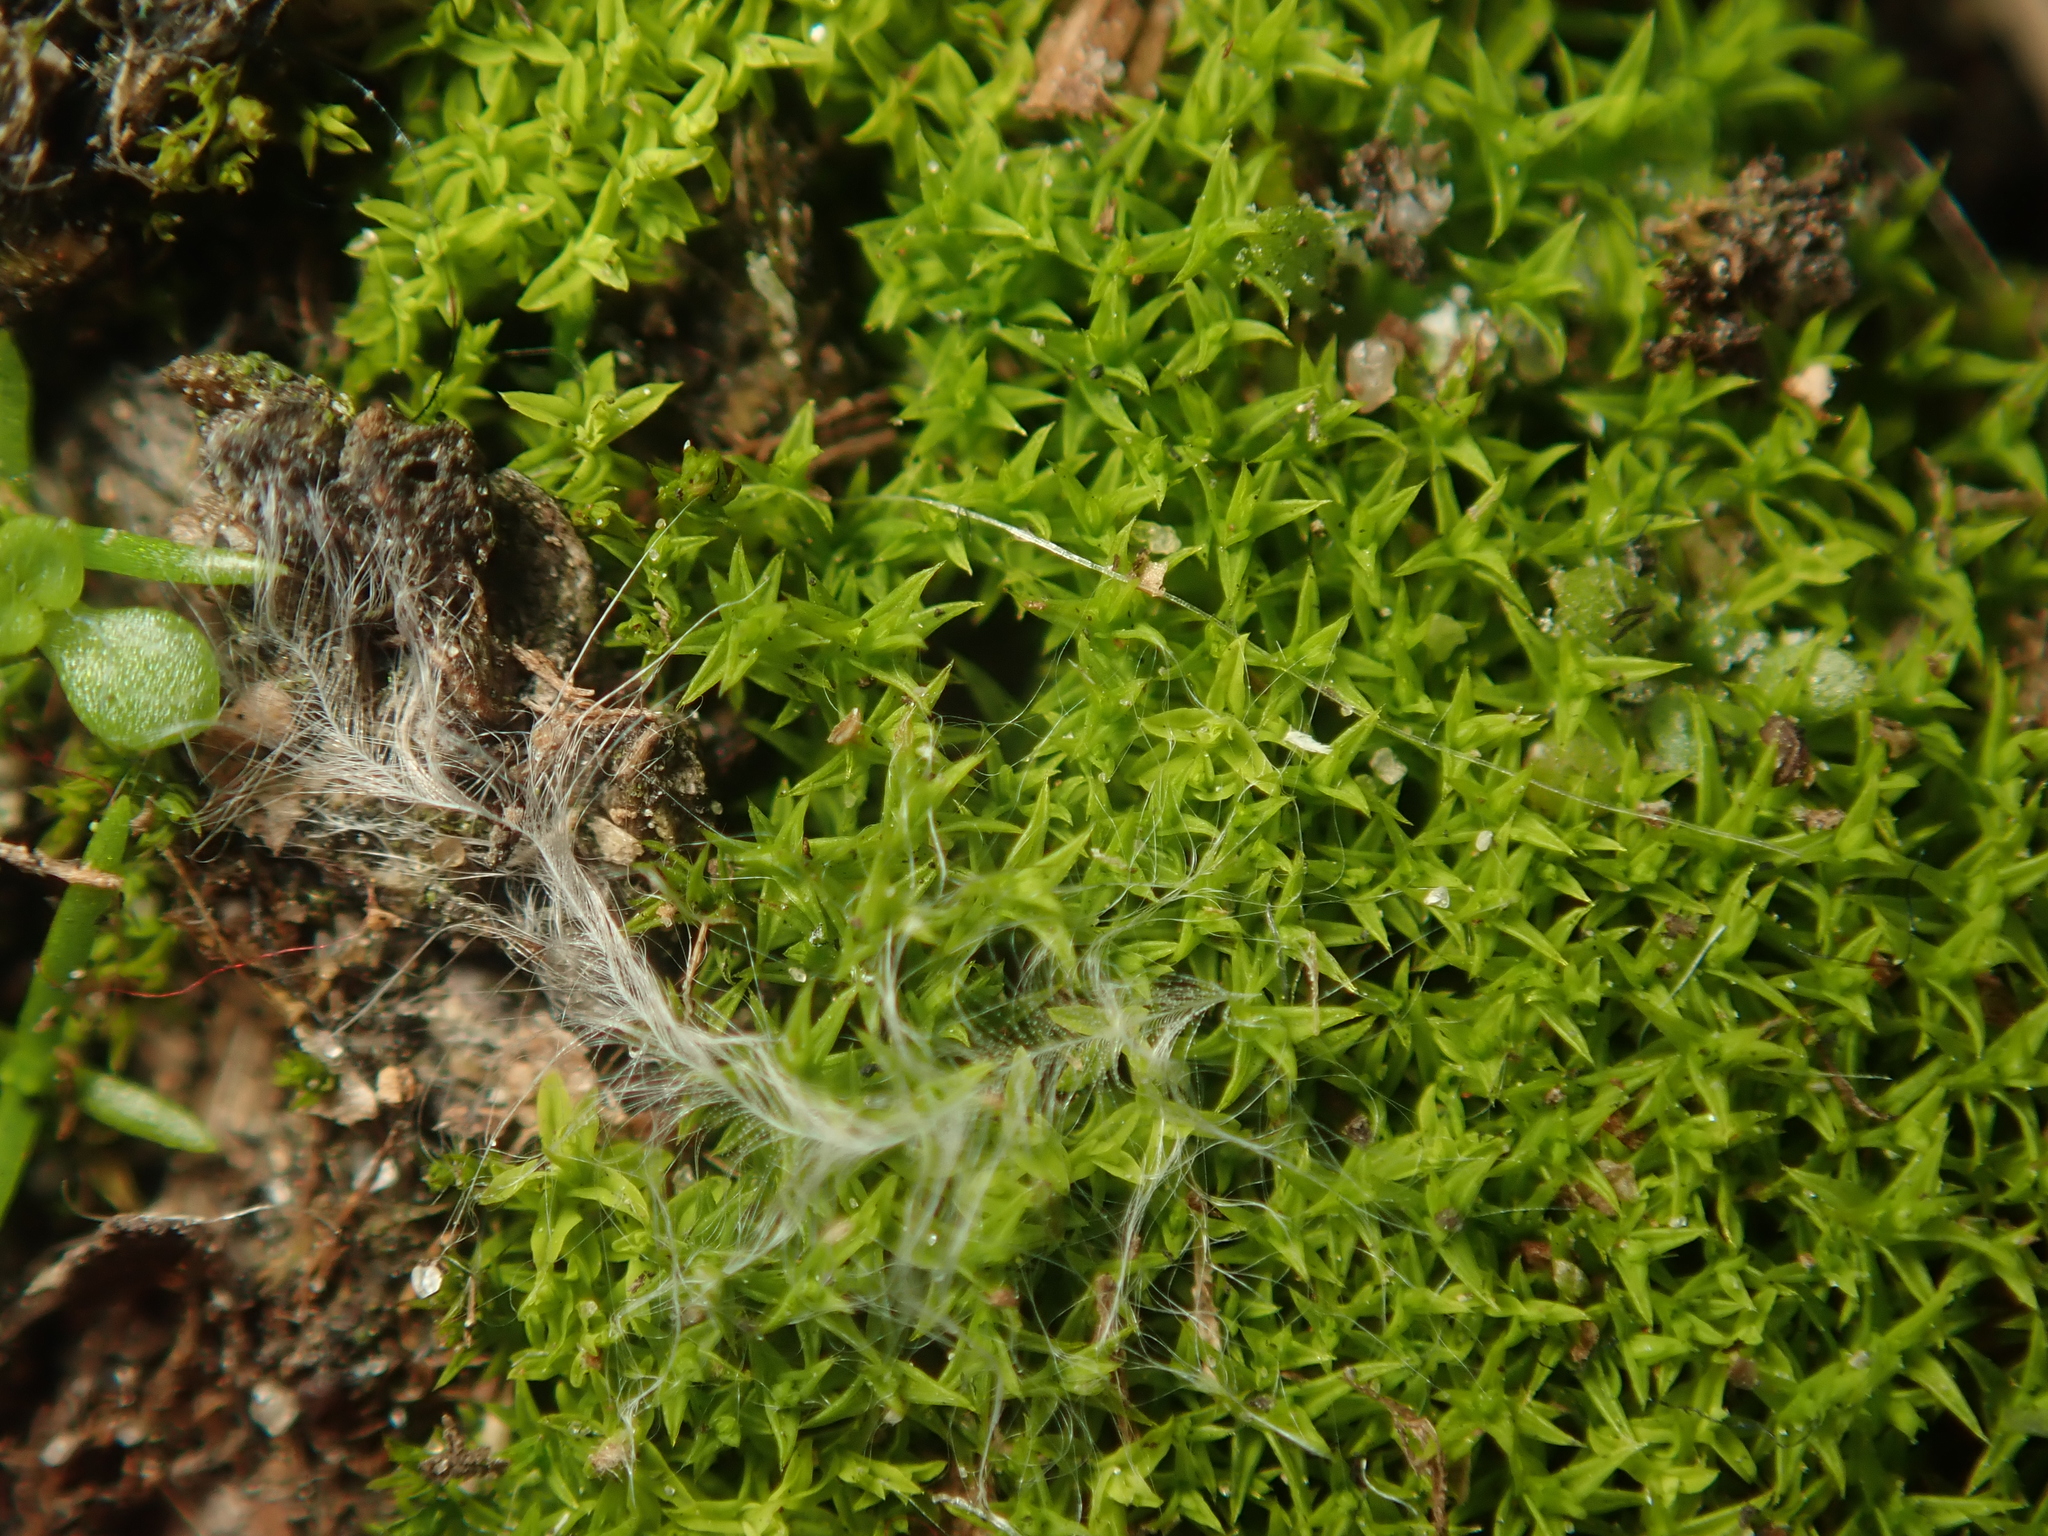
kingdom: Plantae
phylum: Bryophyta
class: Bryopsida
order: Pottiales
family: Pottiaceae
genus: Barbula
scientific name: Barbula unguiculata
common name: Prickly beard moss
